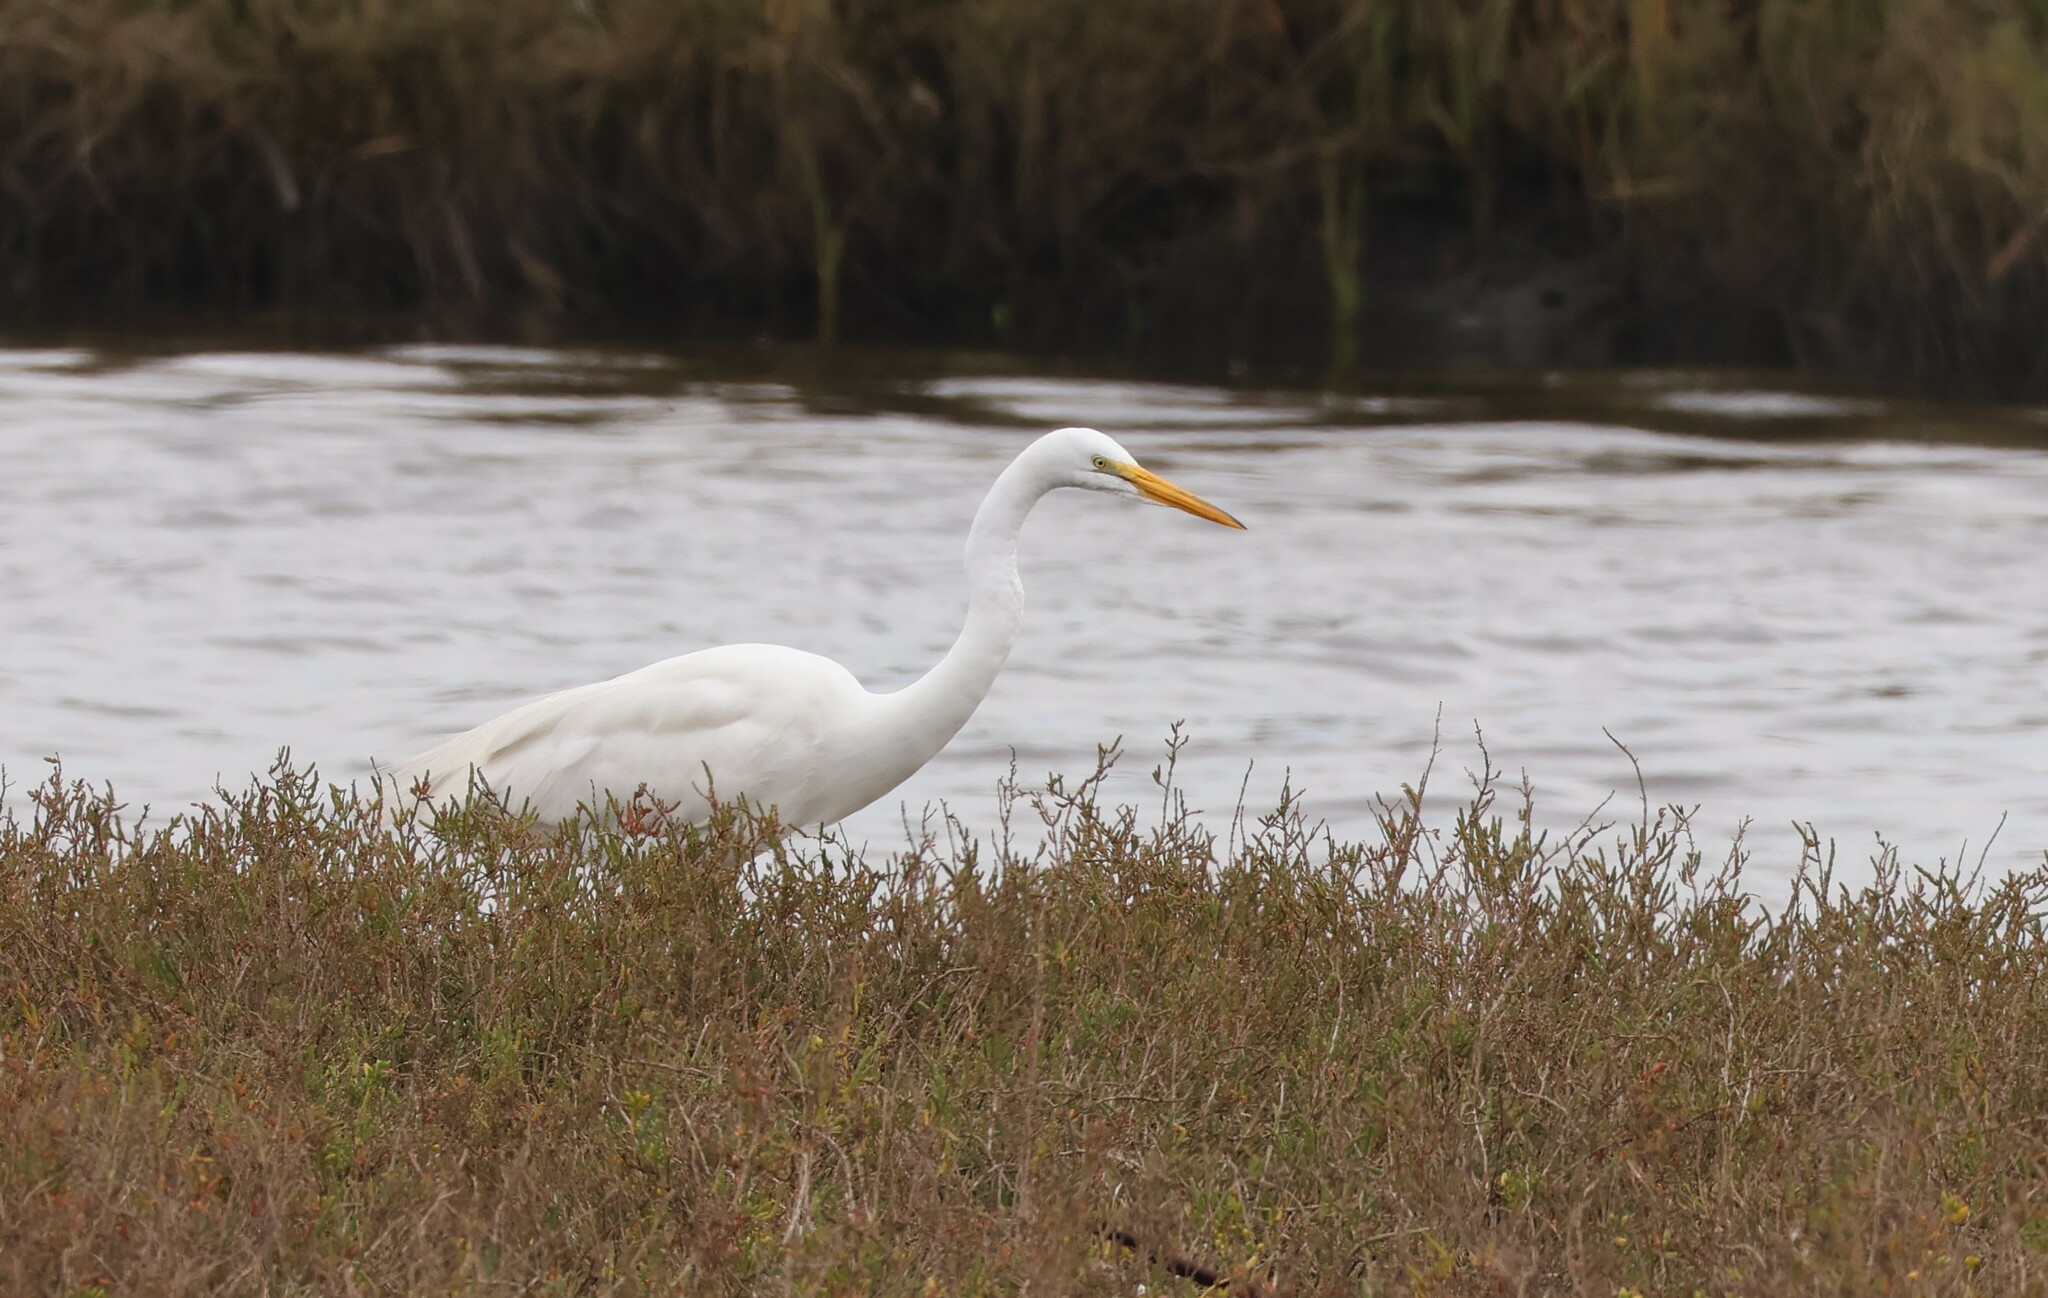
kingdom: Animalia
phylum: Chordata
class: Aves
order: Pelecaniformes
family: Ardeidae
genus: Ardea
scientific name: Ardea alba
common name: Great egret
